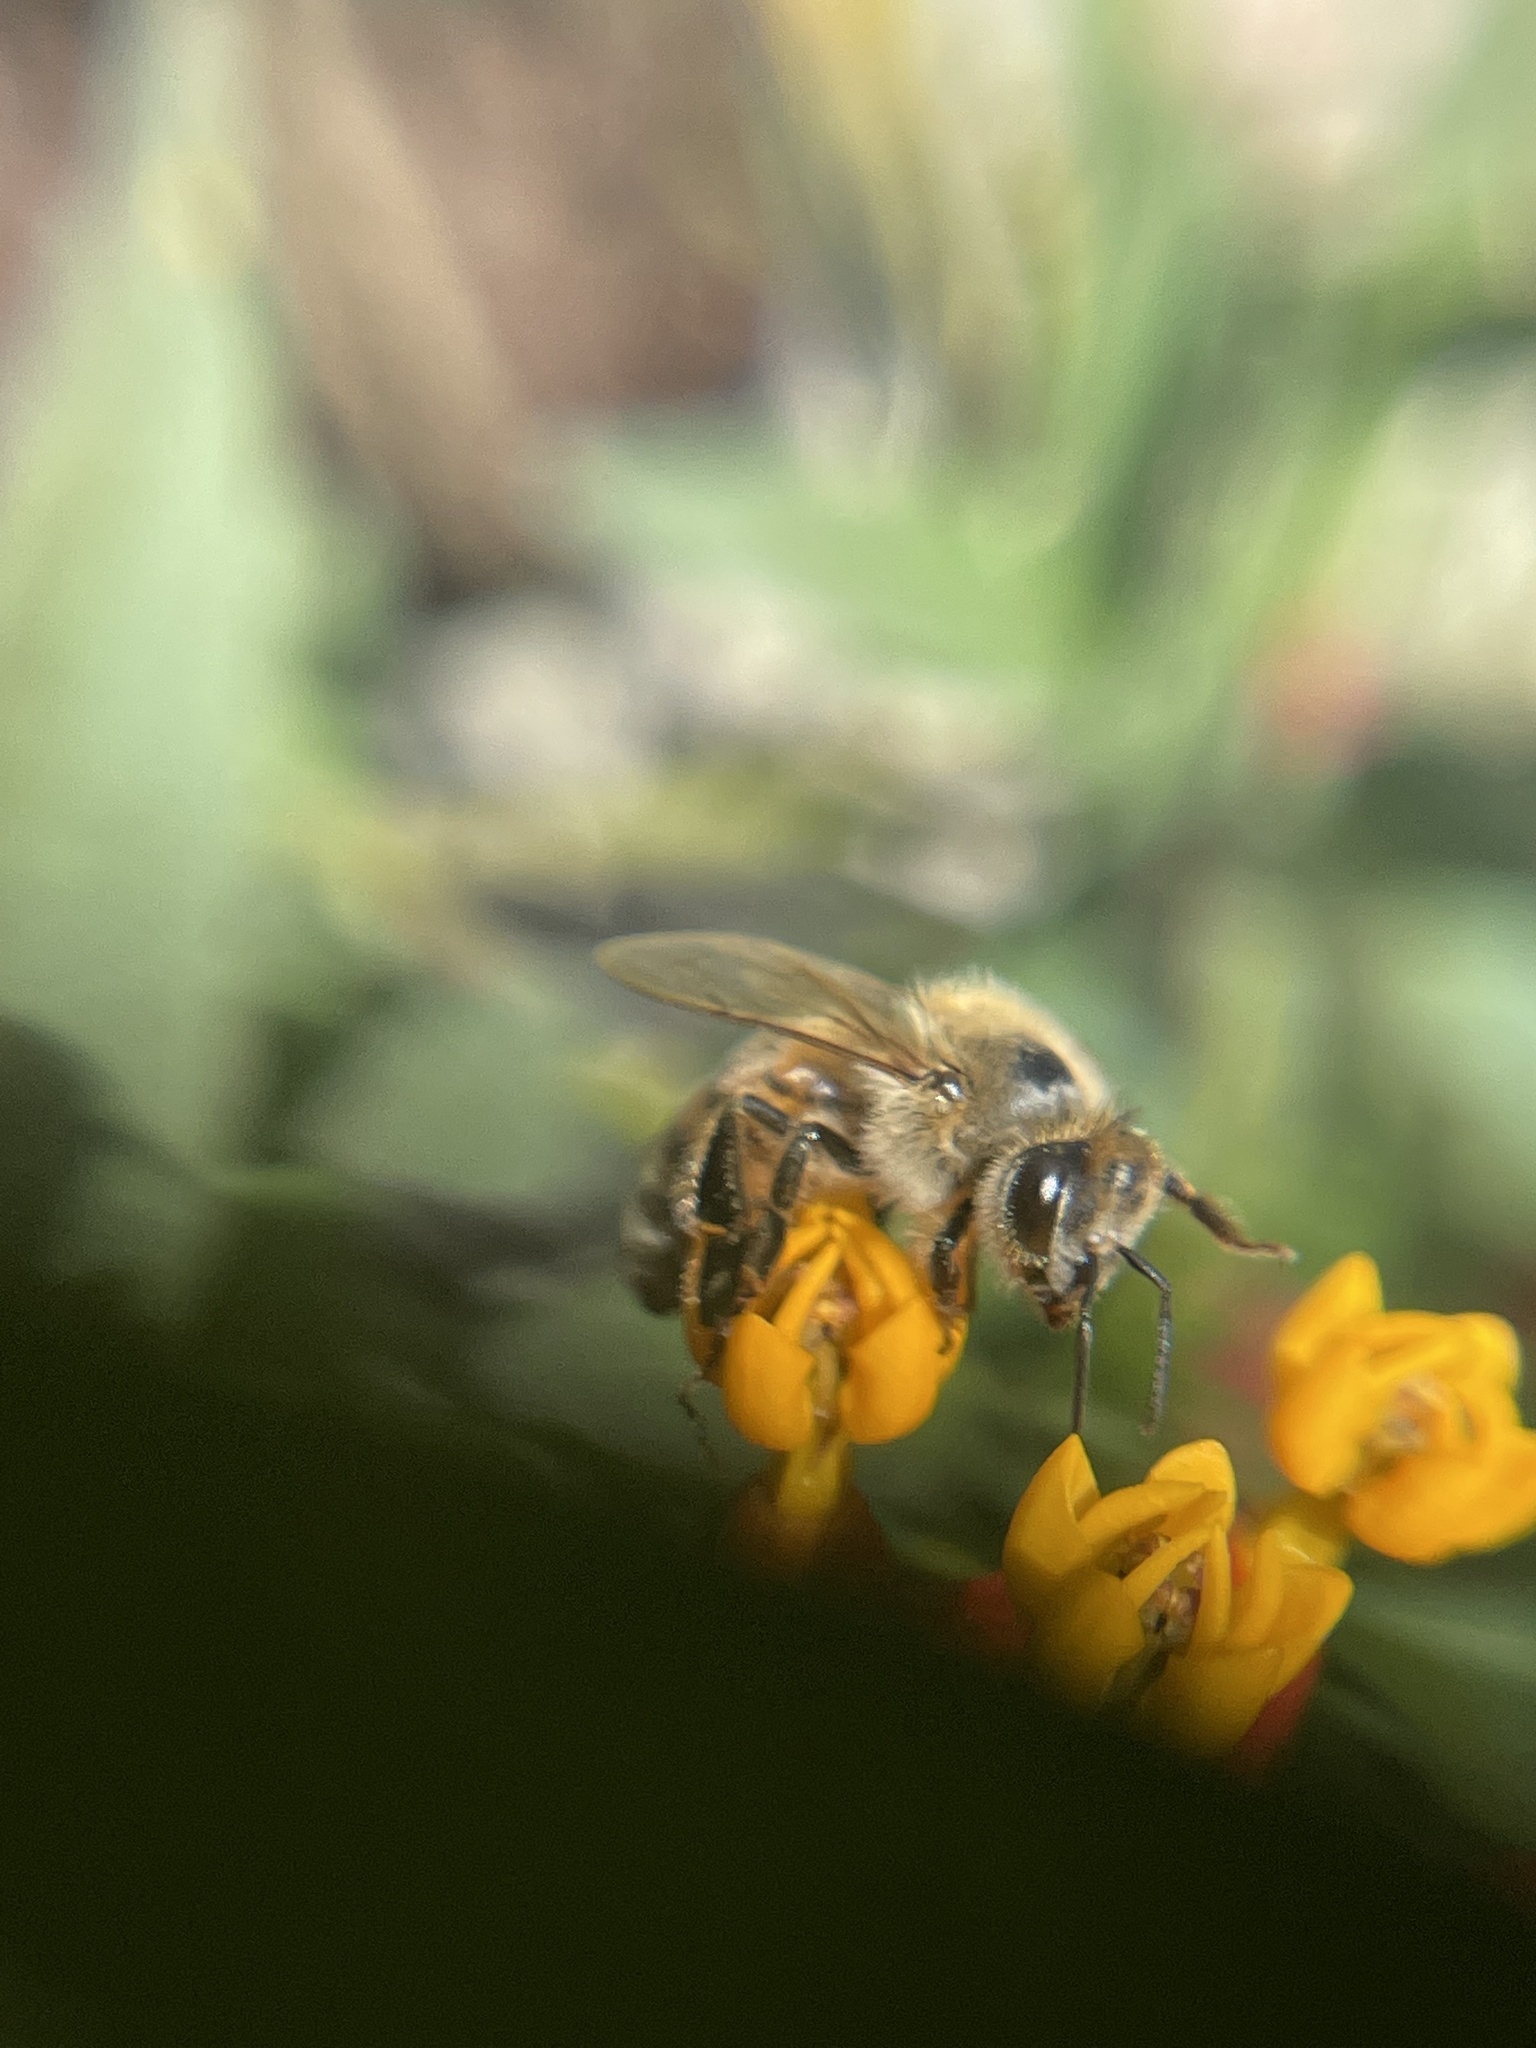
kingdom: Animalia
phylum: Arthropoda
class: Insecta
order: Hymenoptera
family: Apidae
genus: Apis
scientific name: Apis mellifera
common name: Honey bee
